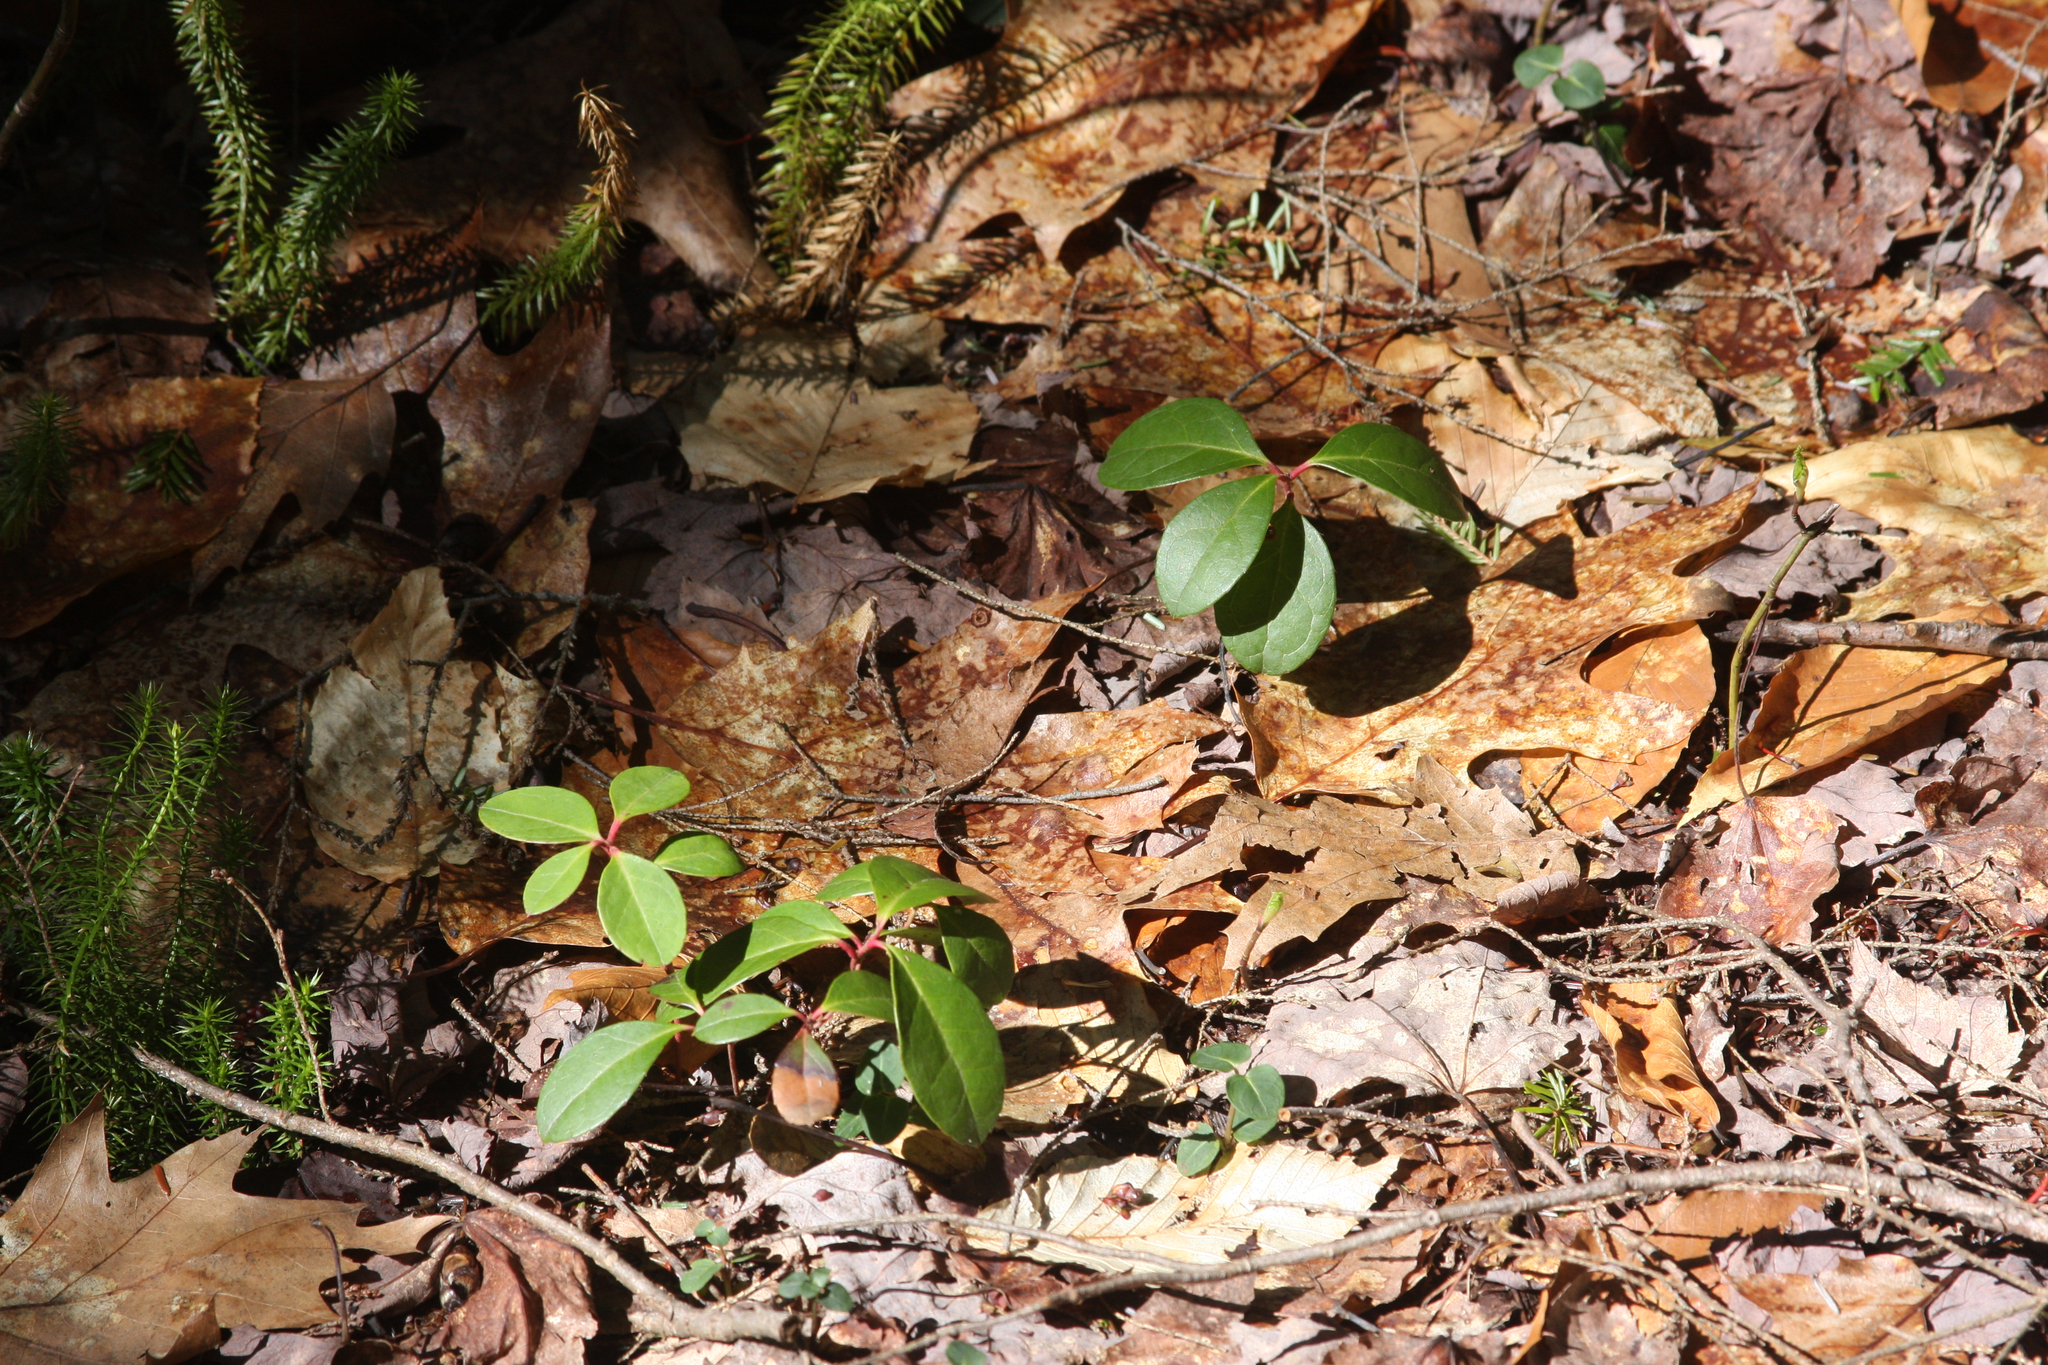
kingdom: Plantae
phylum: Tracheophyta
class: Magnoliopsida
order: Ericales
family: Ericaceae
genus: Gaultheria
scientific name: Gaultheria procumbens
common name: Checkerberry
